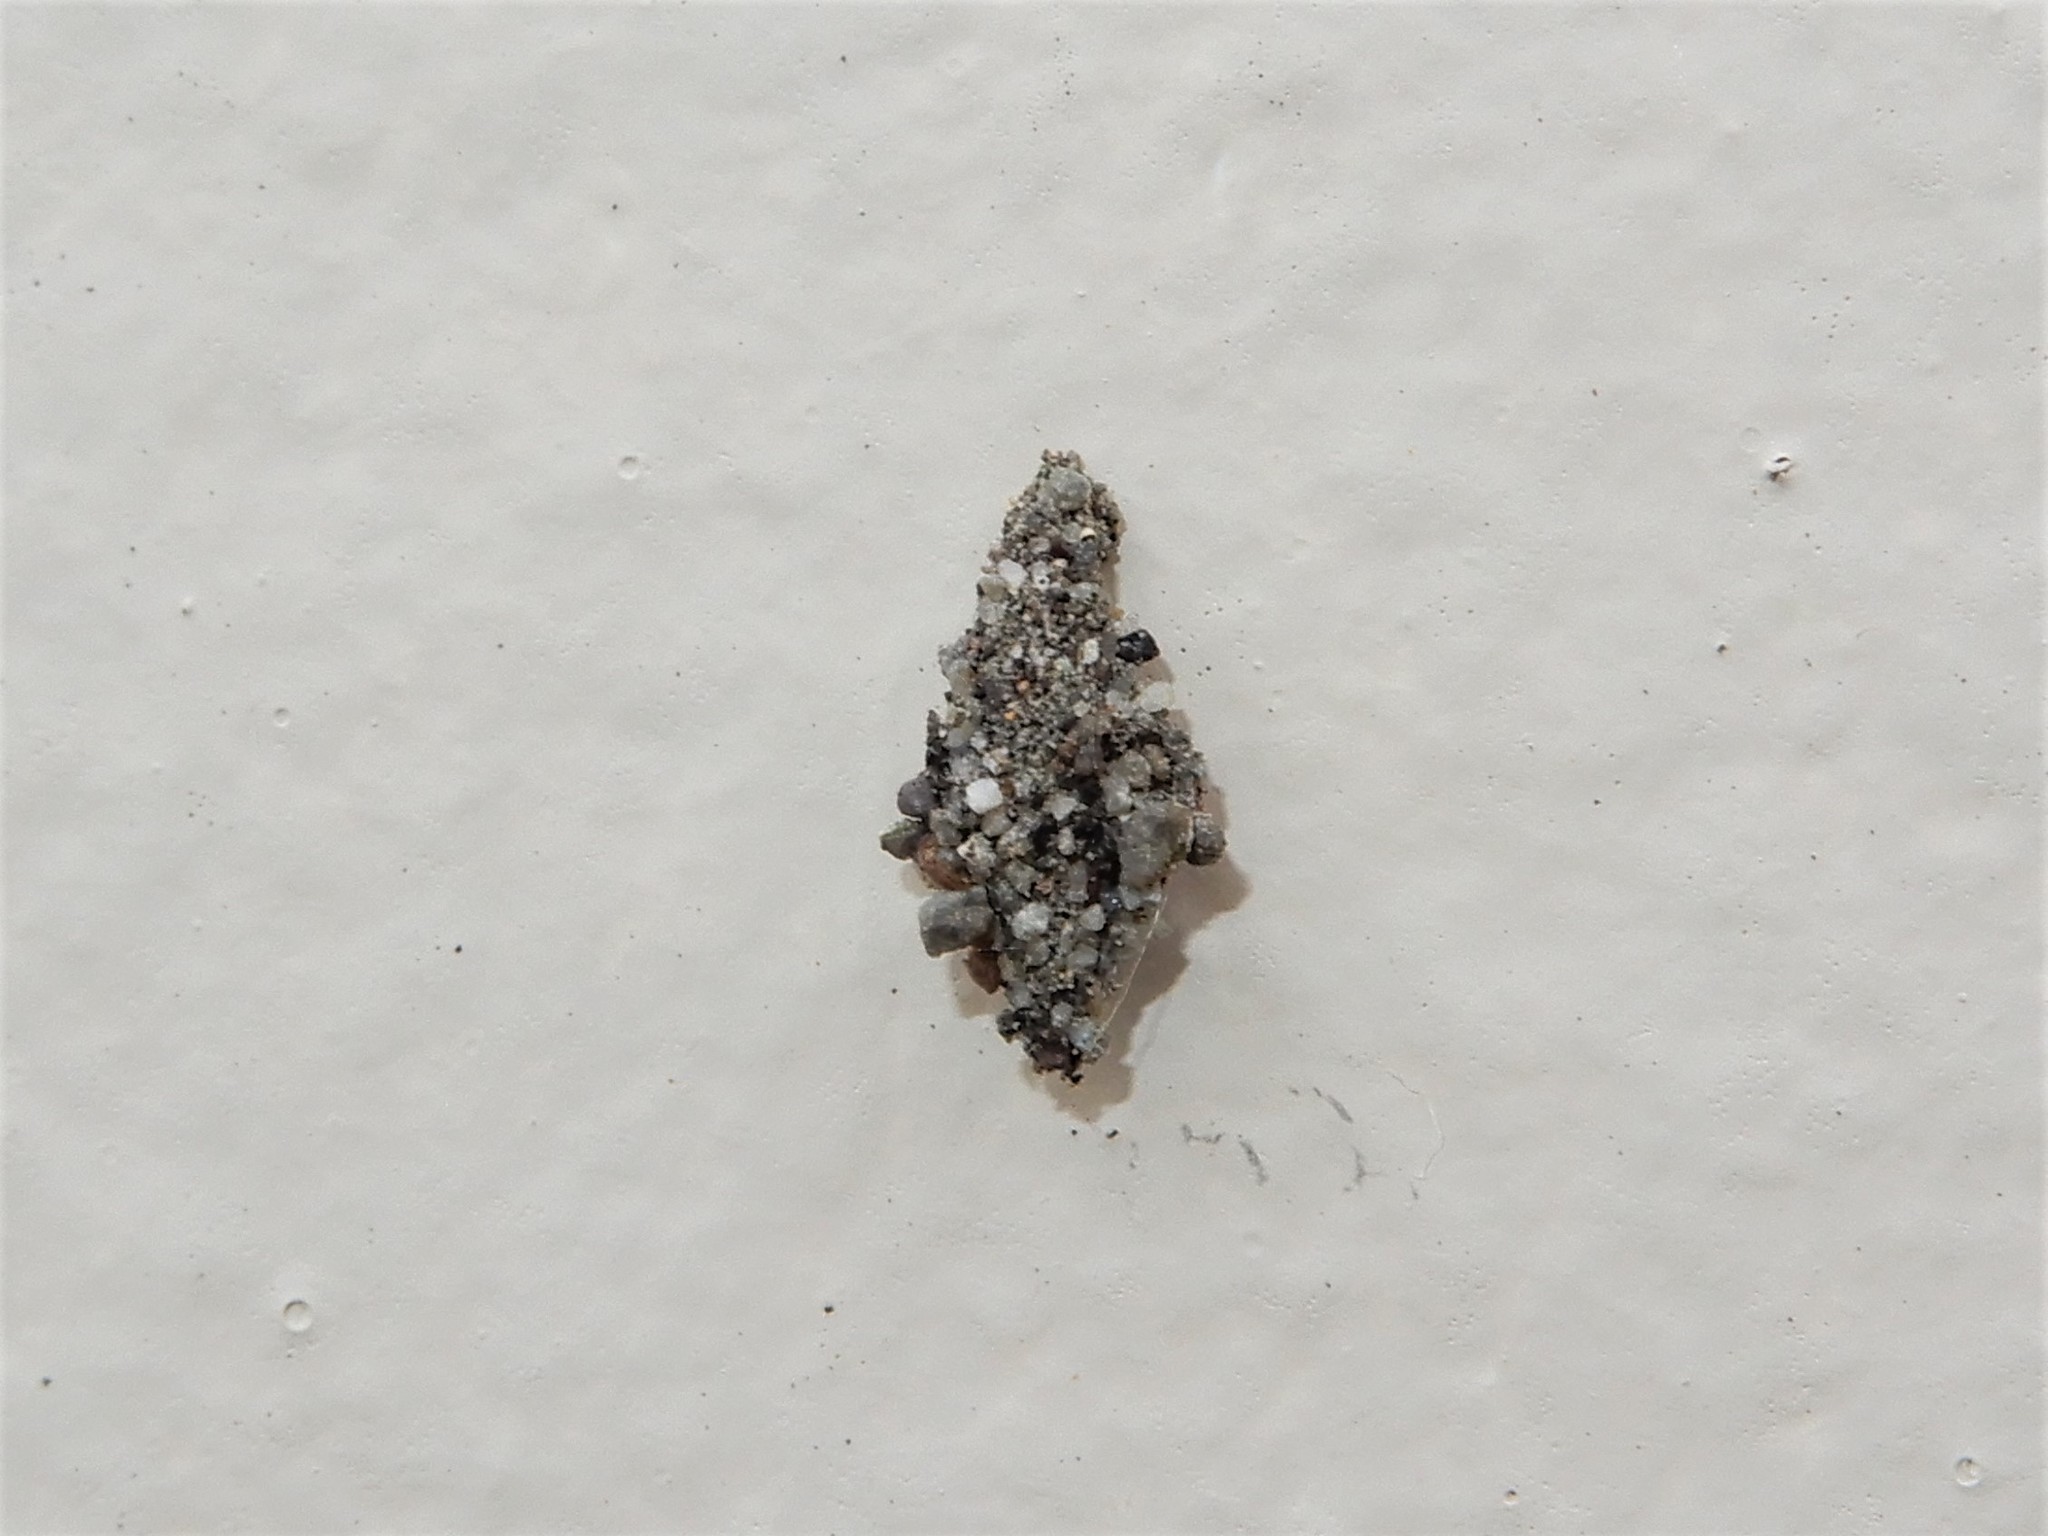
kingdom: Animalia
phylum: Arthropoda
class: Insecta
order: Lepidoptera
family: Psychidae
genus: Cebysa
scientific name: Cebysa leucotelus
